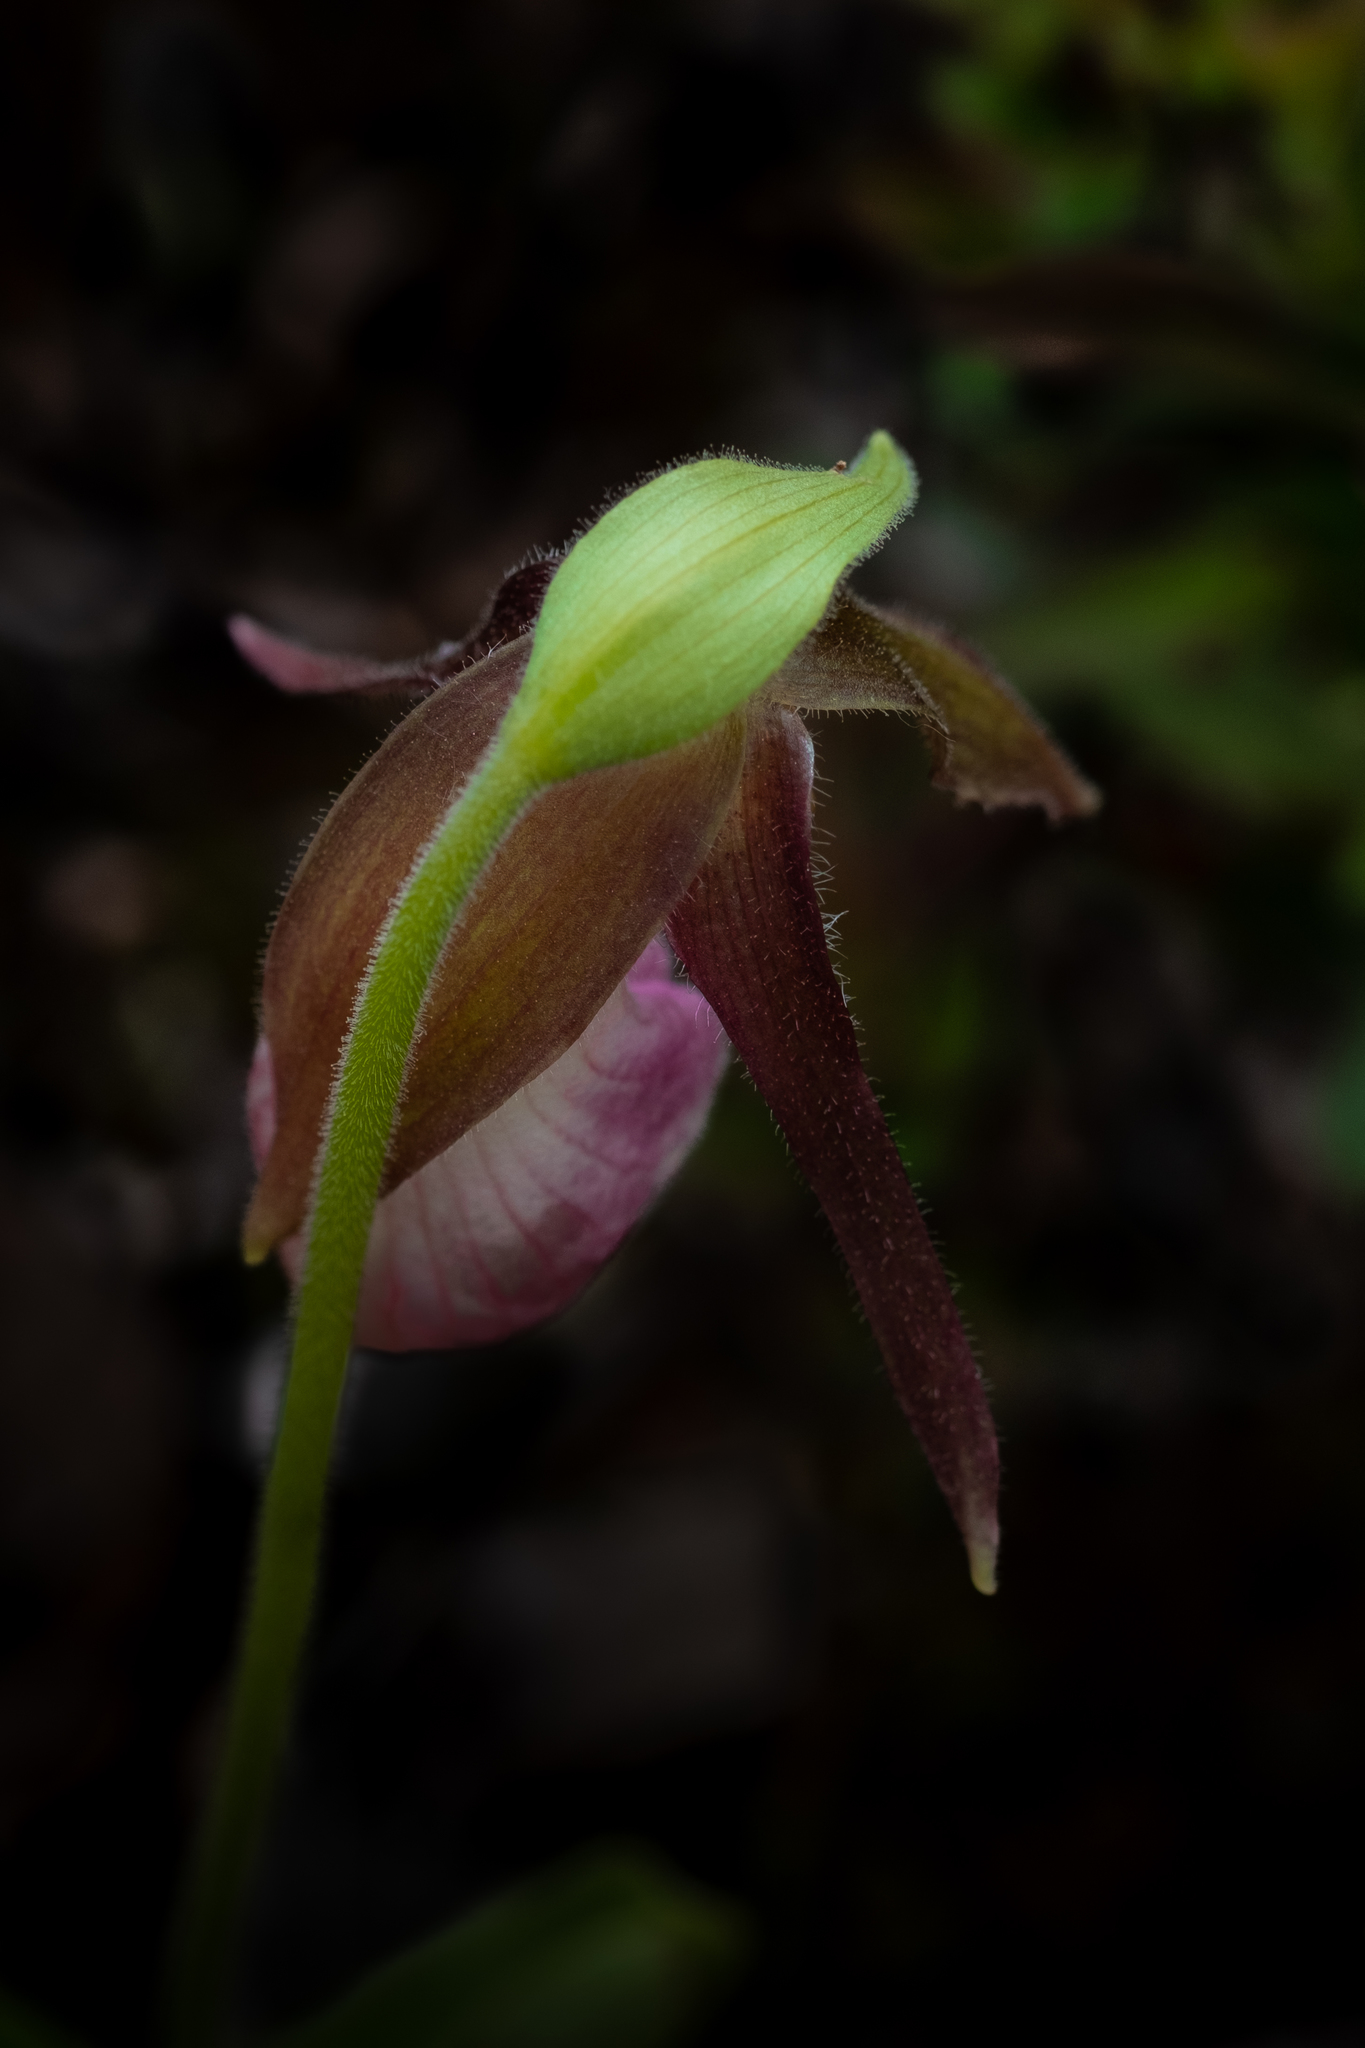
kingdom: Plantae
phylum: Tracheophyta
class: Liliopsida
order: Asparagales
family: Orchidaceae
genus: Cypripedium
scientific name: Cypripedium acaule
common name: Pink lady's-slipper
